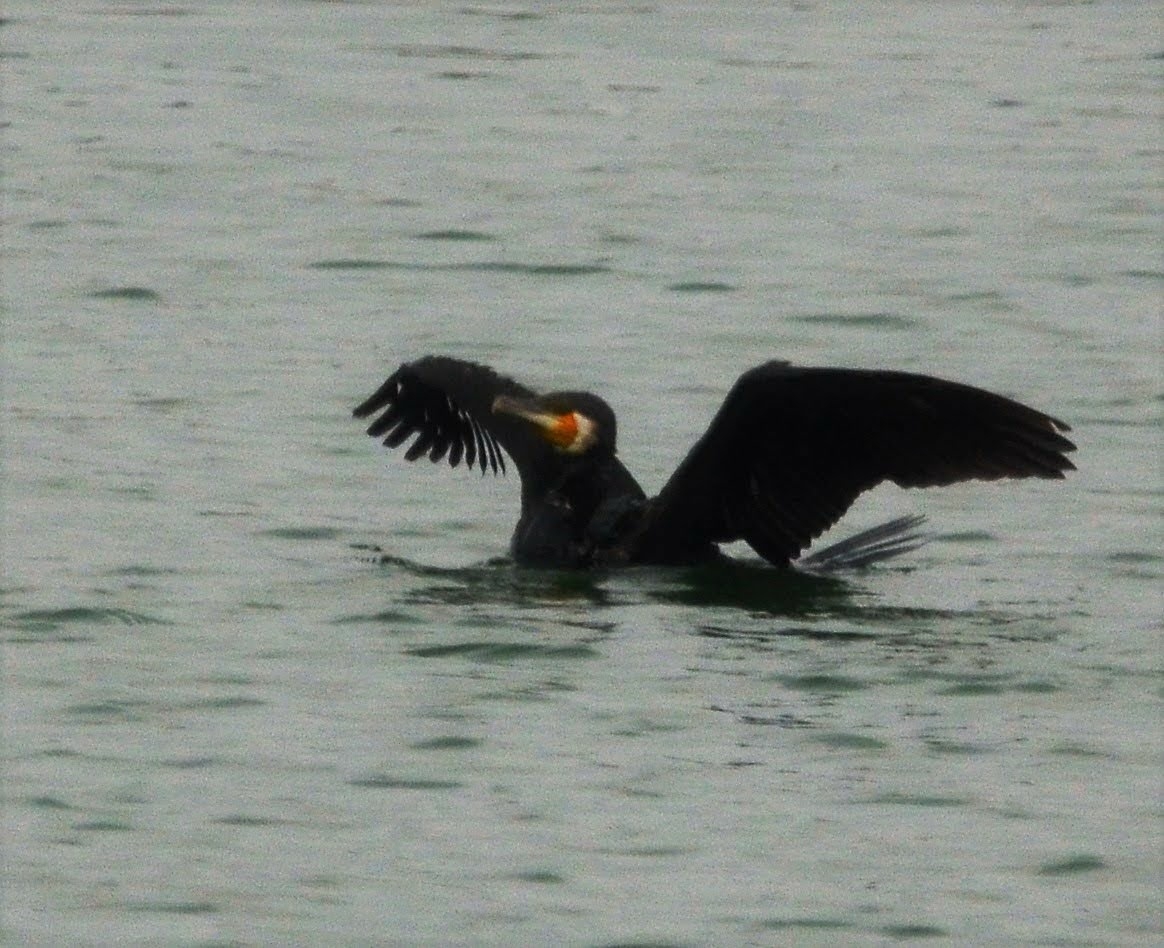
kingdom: Animalia
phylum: Chordata
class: Aves
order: Suliformes
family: Phalacrocoracidae
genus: Phalacrocorax
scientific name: Phalacrocorax carbo
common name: Great cormorant
